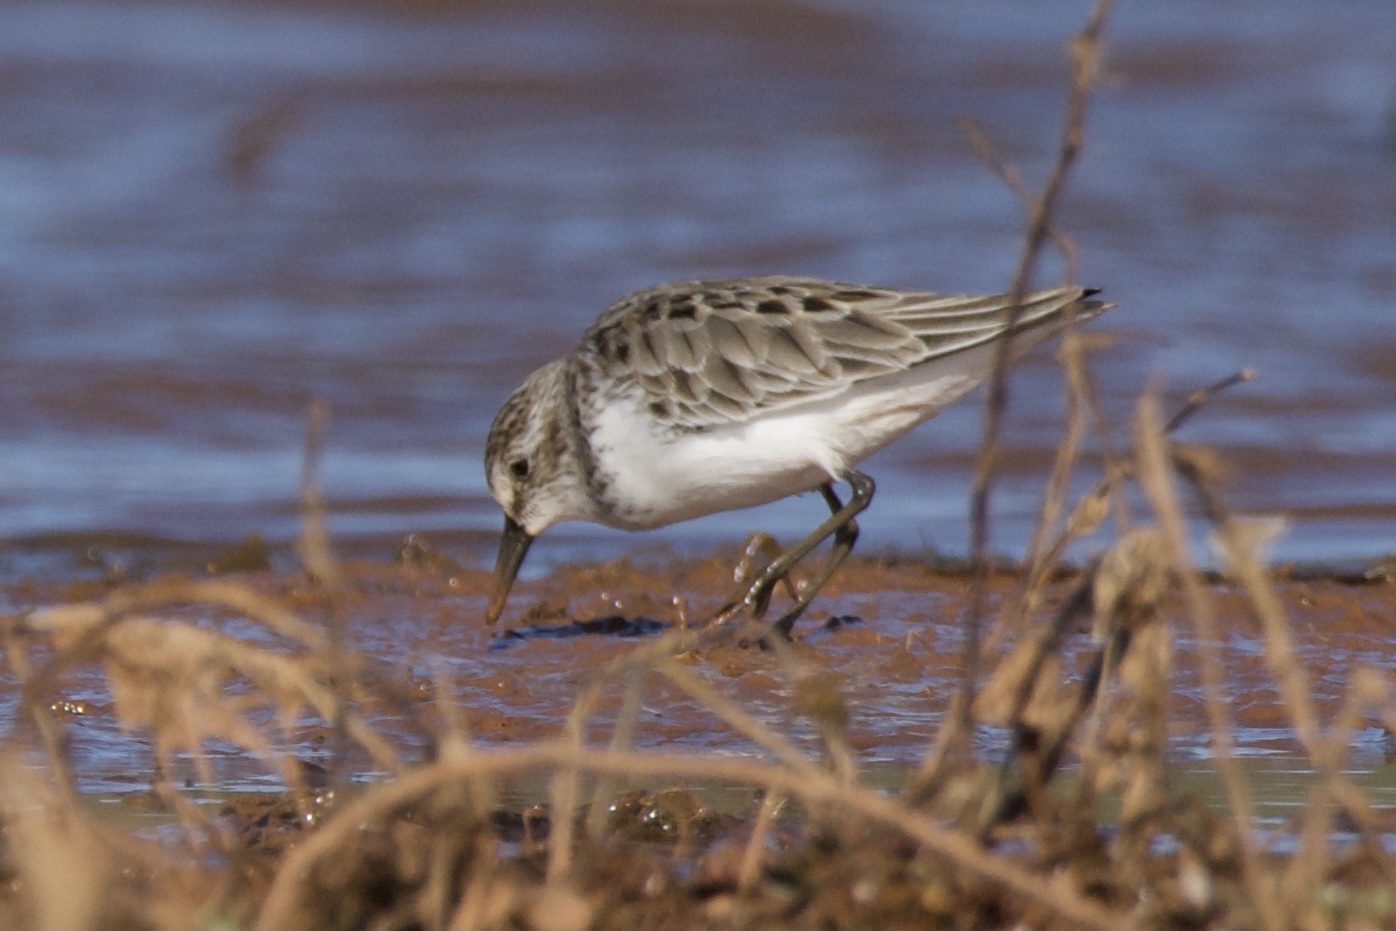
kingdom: Animalia
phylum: Chordata
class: Aves
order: Charadriiformes
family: Scolopacidae
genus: Calidris
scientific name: Calidris pusilla
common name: Semipalmated sandpiper
